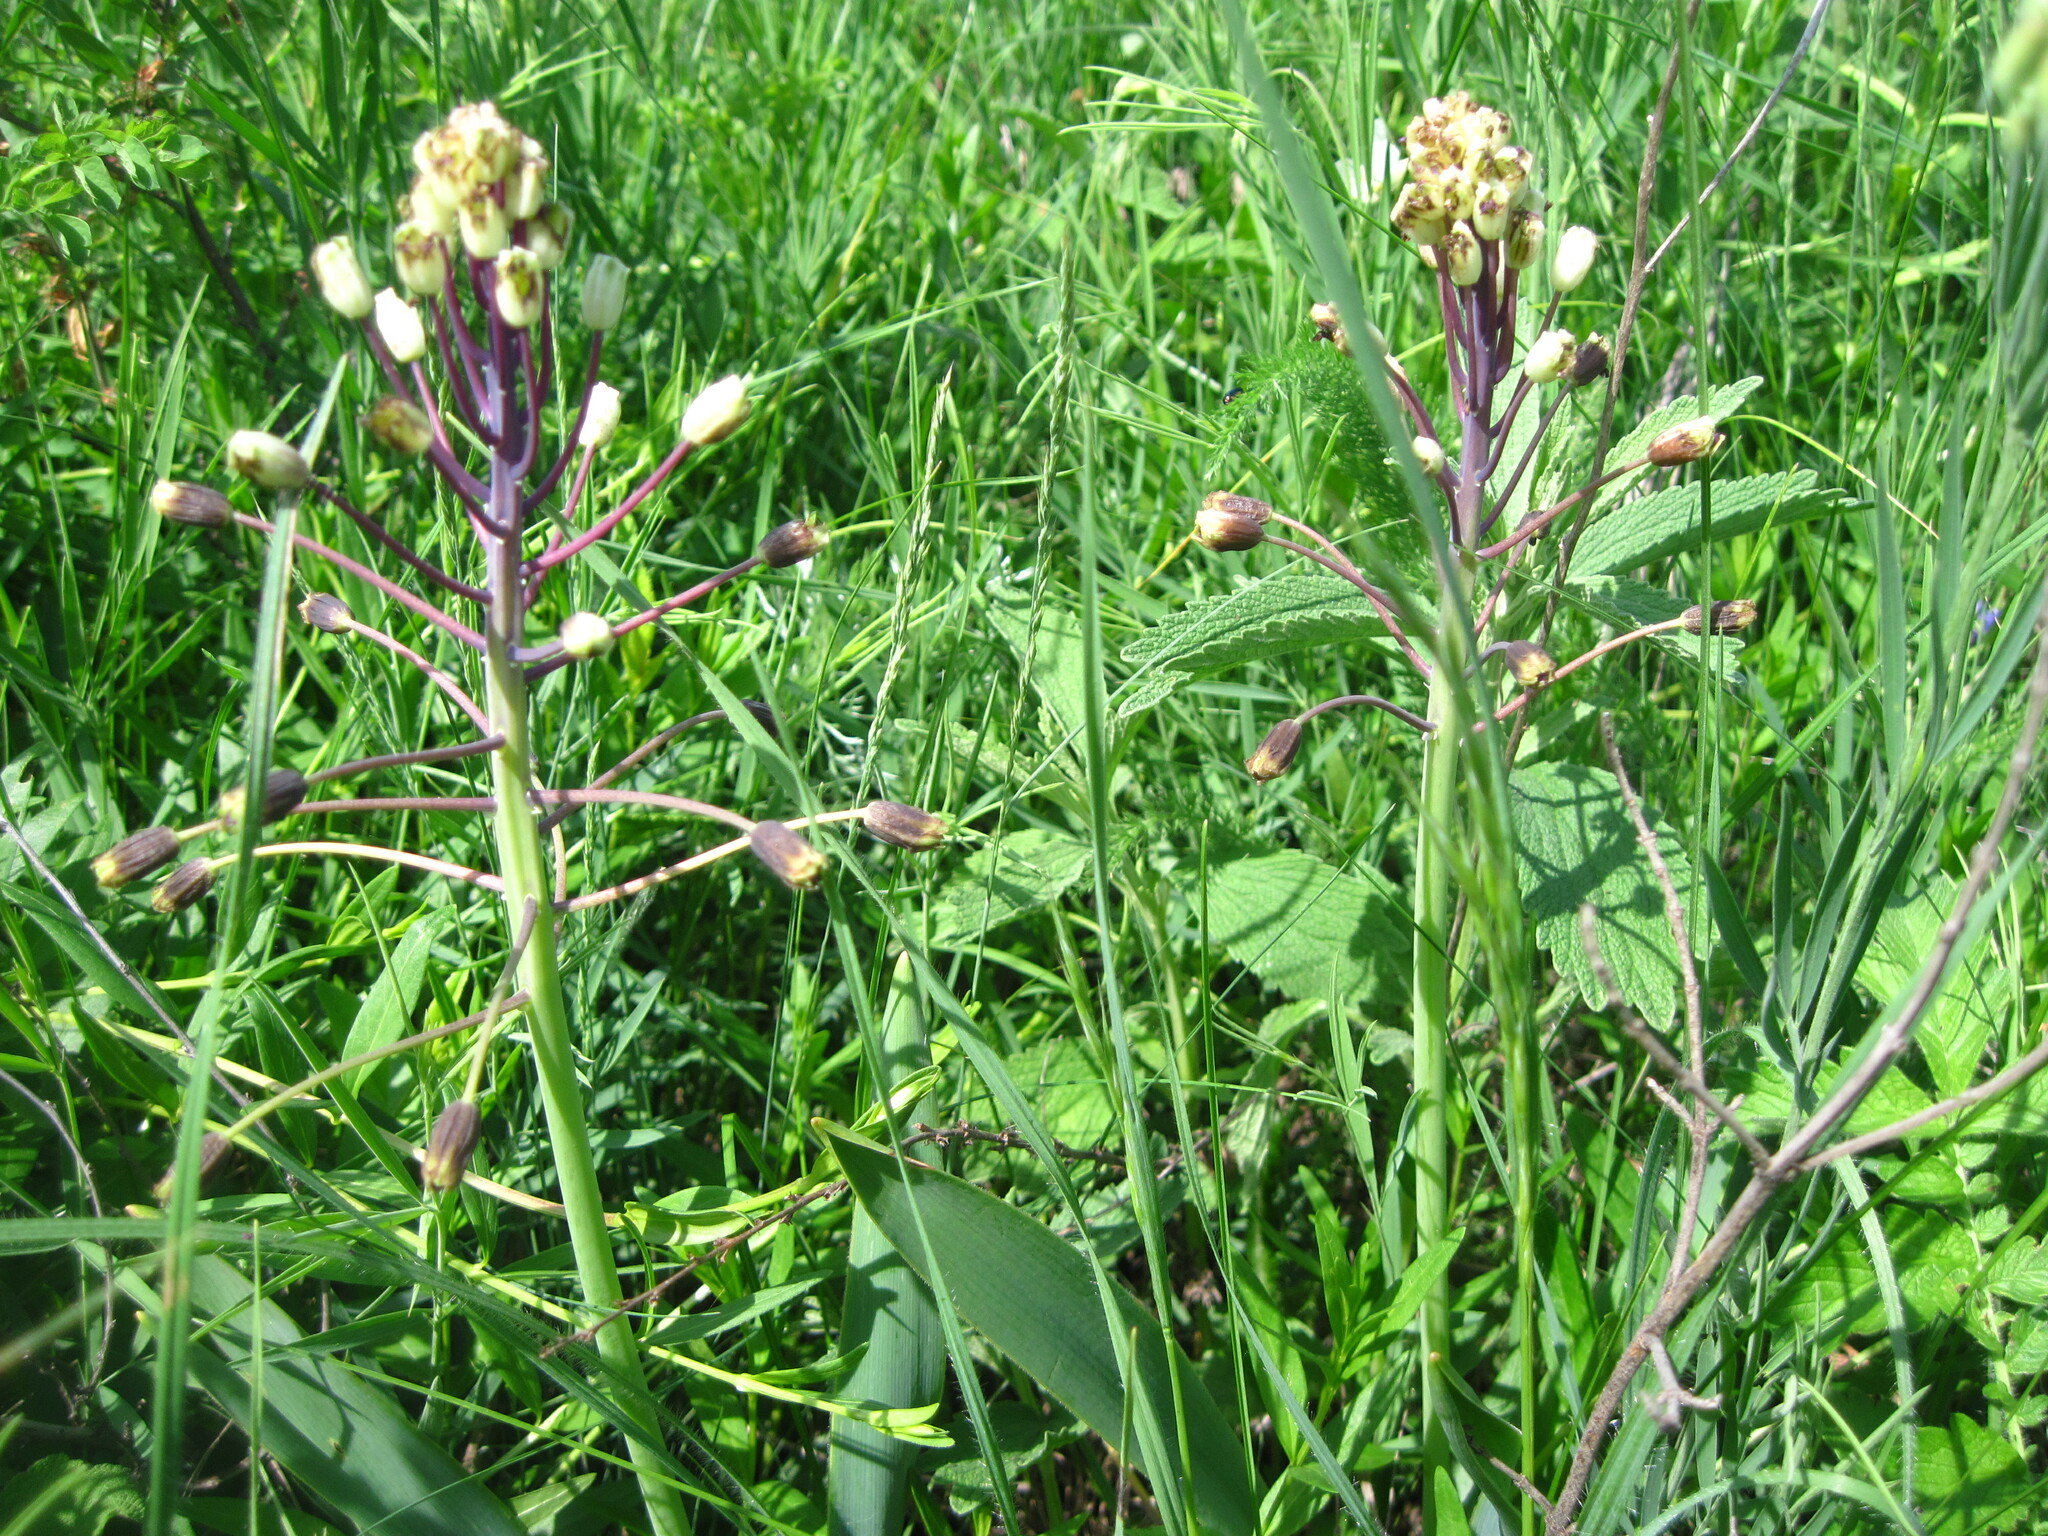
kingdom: Plantae
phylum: Tracheophyta
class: Liliopsida
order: Asparagales
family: Asparagaceae
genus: Bellevalia
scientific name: Bellevalia speciosa
